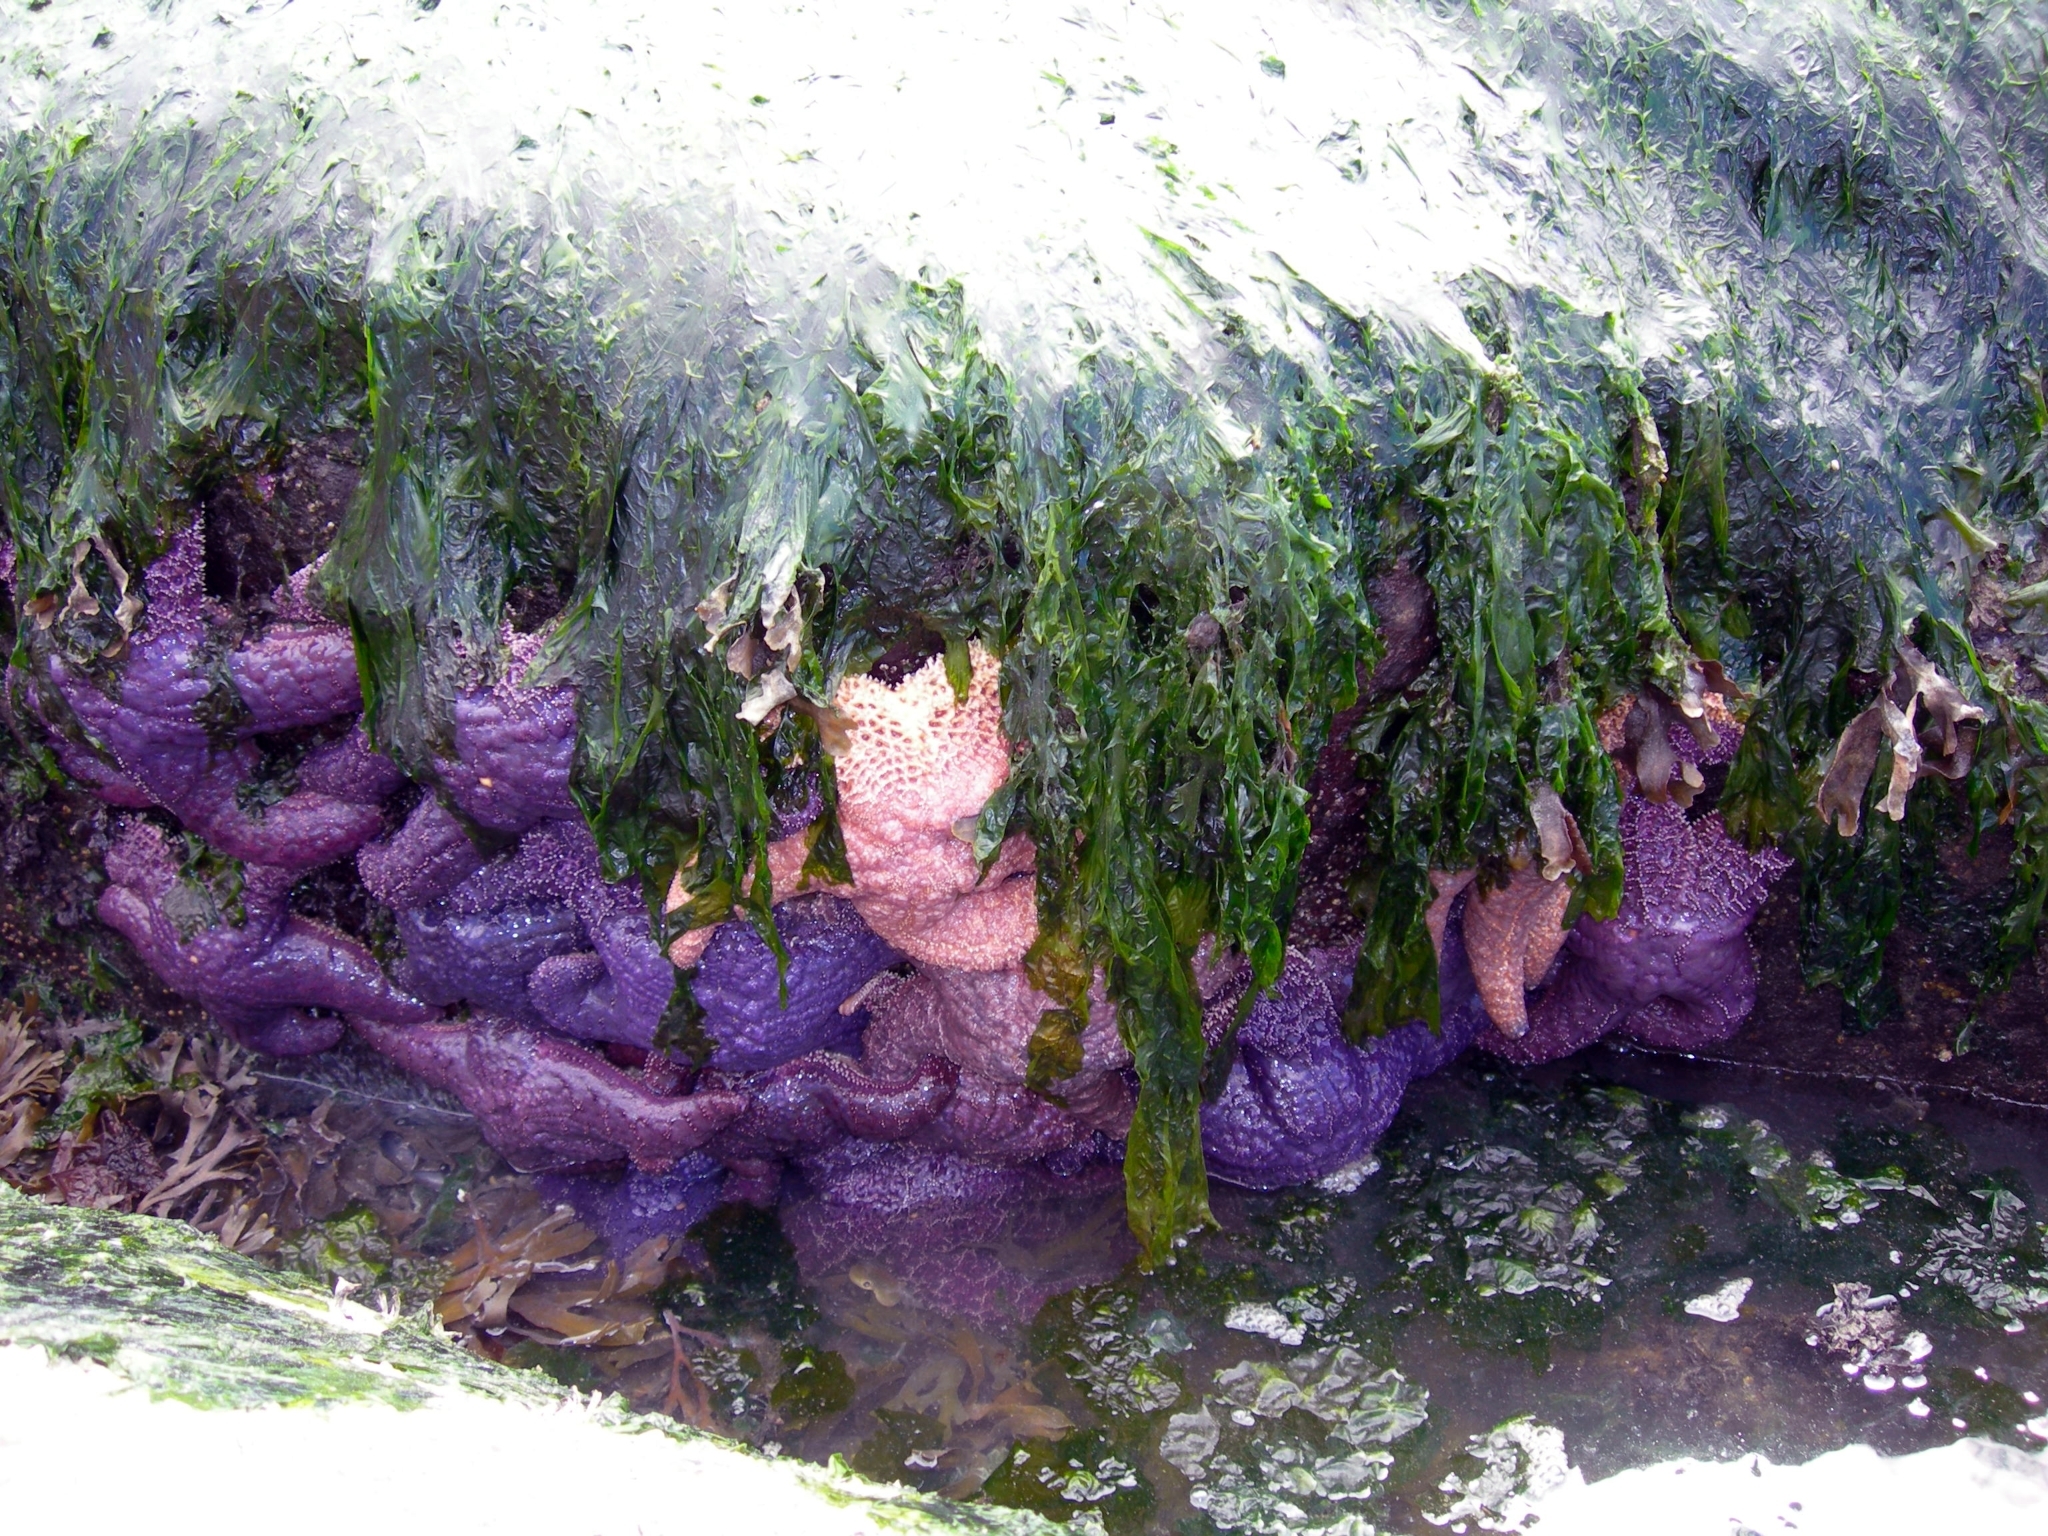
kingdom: Animalia
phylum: Echinodermata
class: Asteroidea
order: Forcipulatida
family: Asteriidae
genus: Pisaster
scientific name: Pisaster ochraceus
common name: Ochre stars
